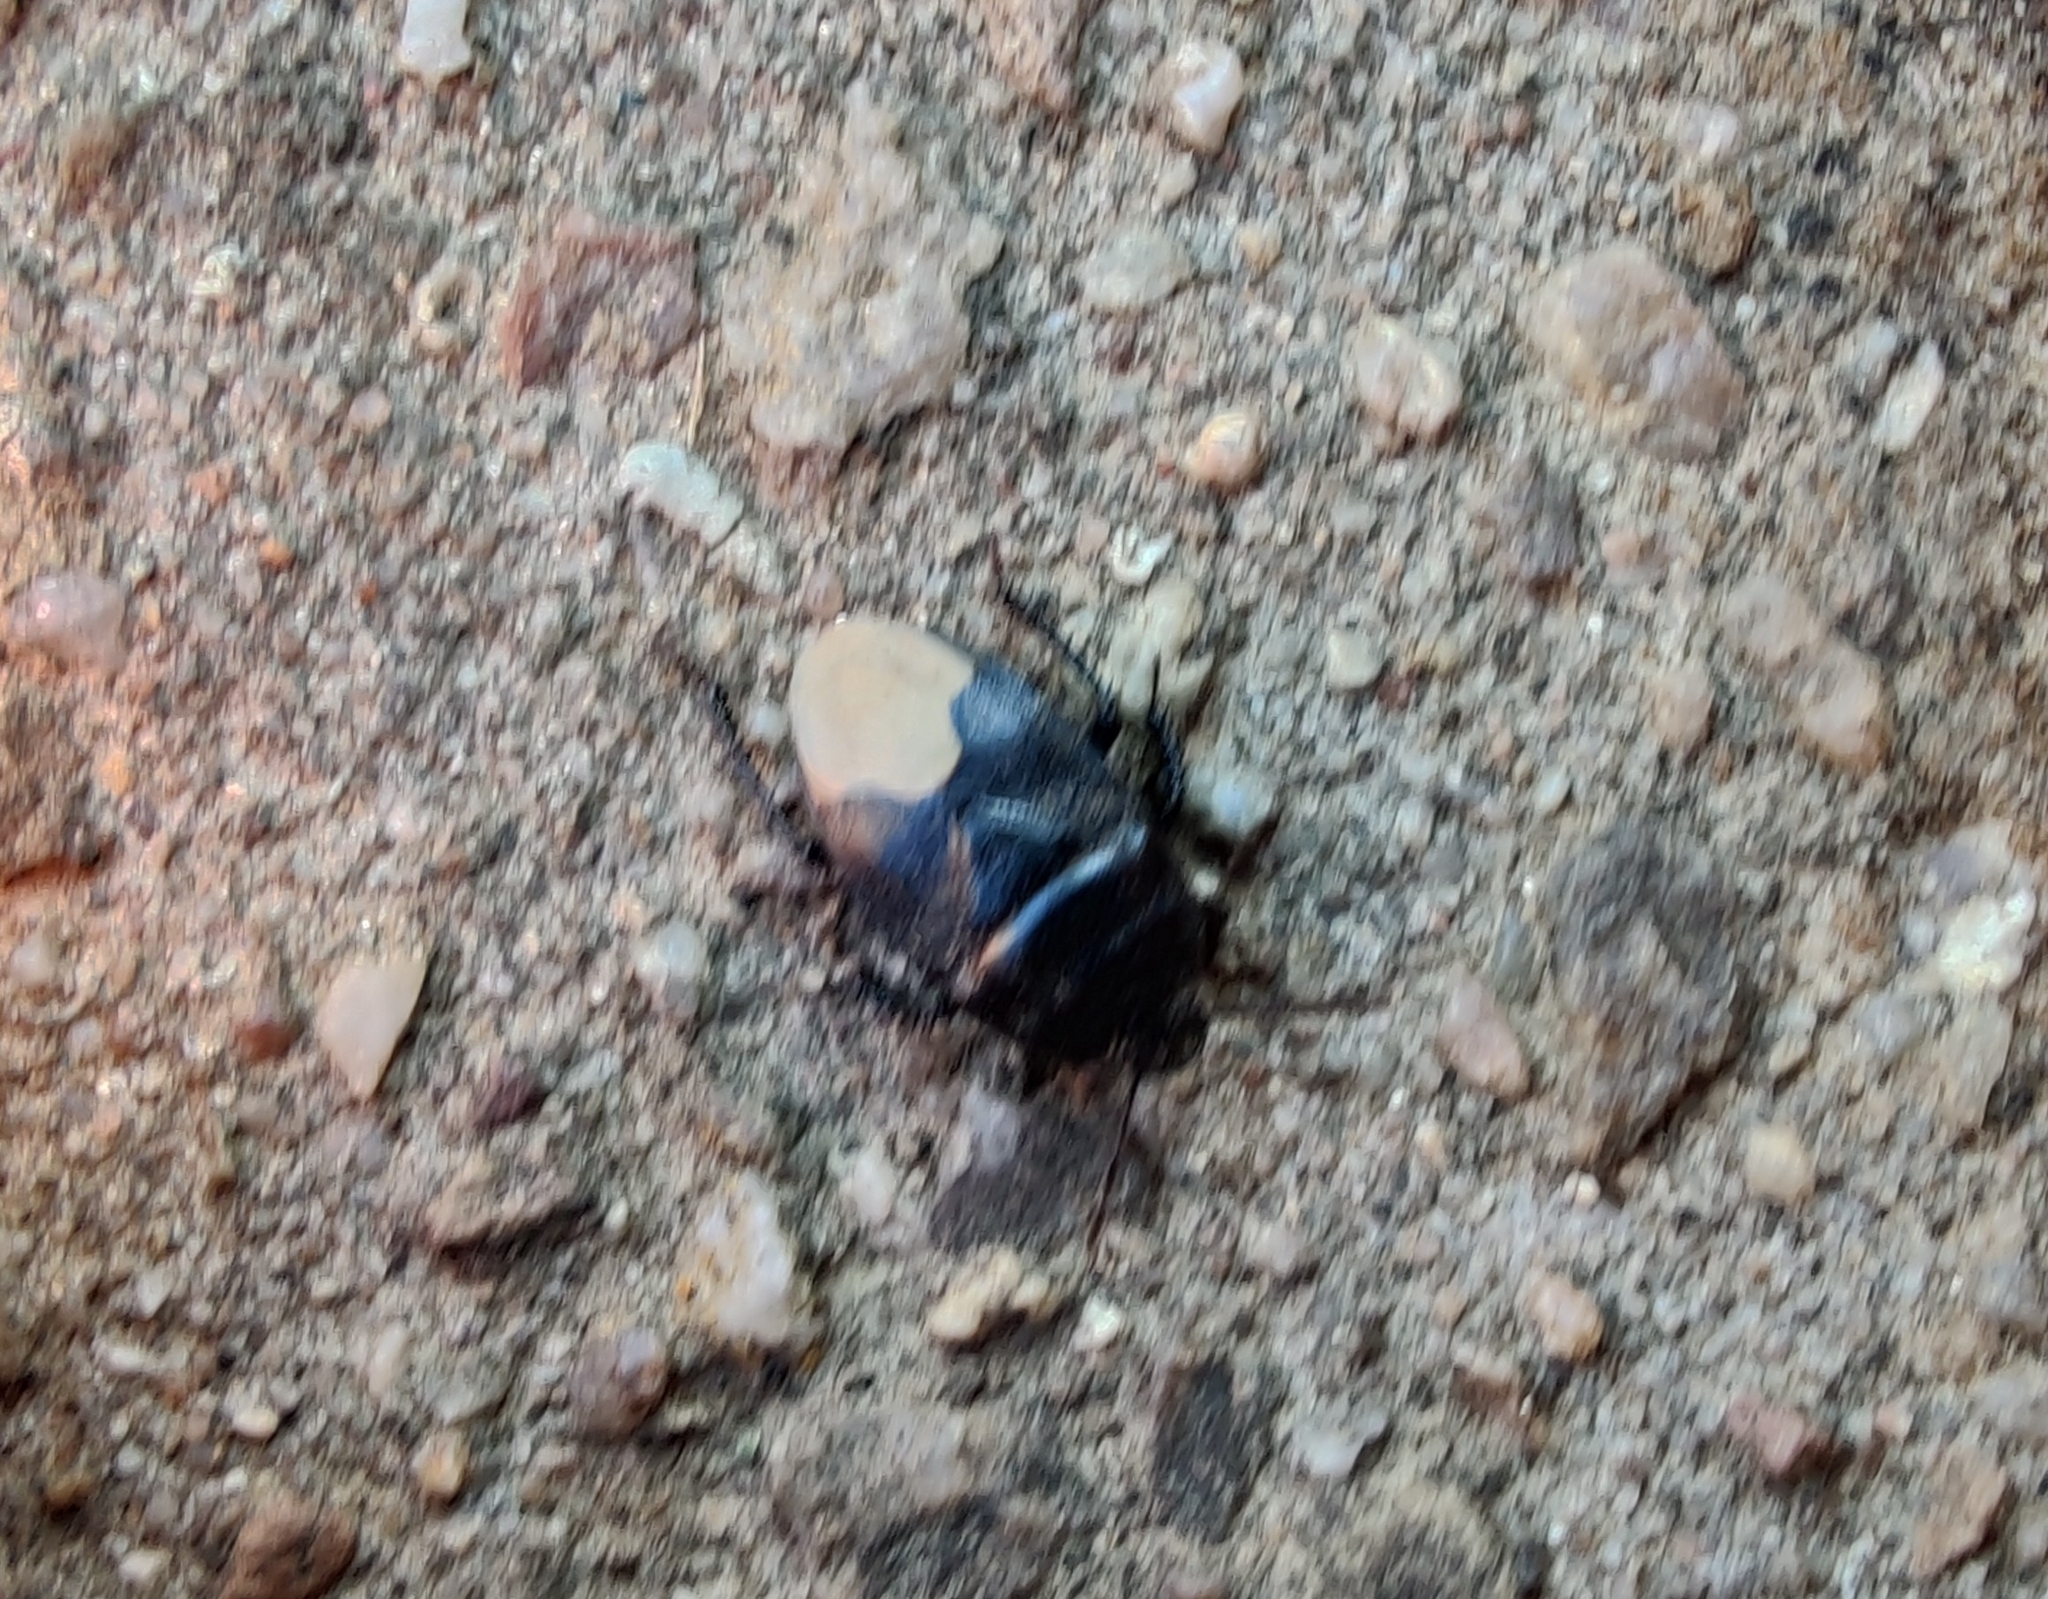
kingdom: Animalia
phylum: Arthropoda
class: Insecta
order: Hemiptera
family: Cydnidae
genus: Cydnus
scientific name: Cydnus aterrimus
